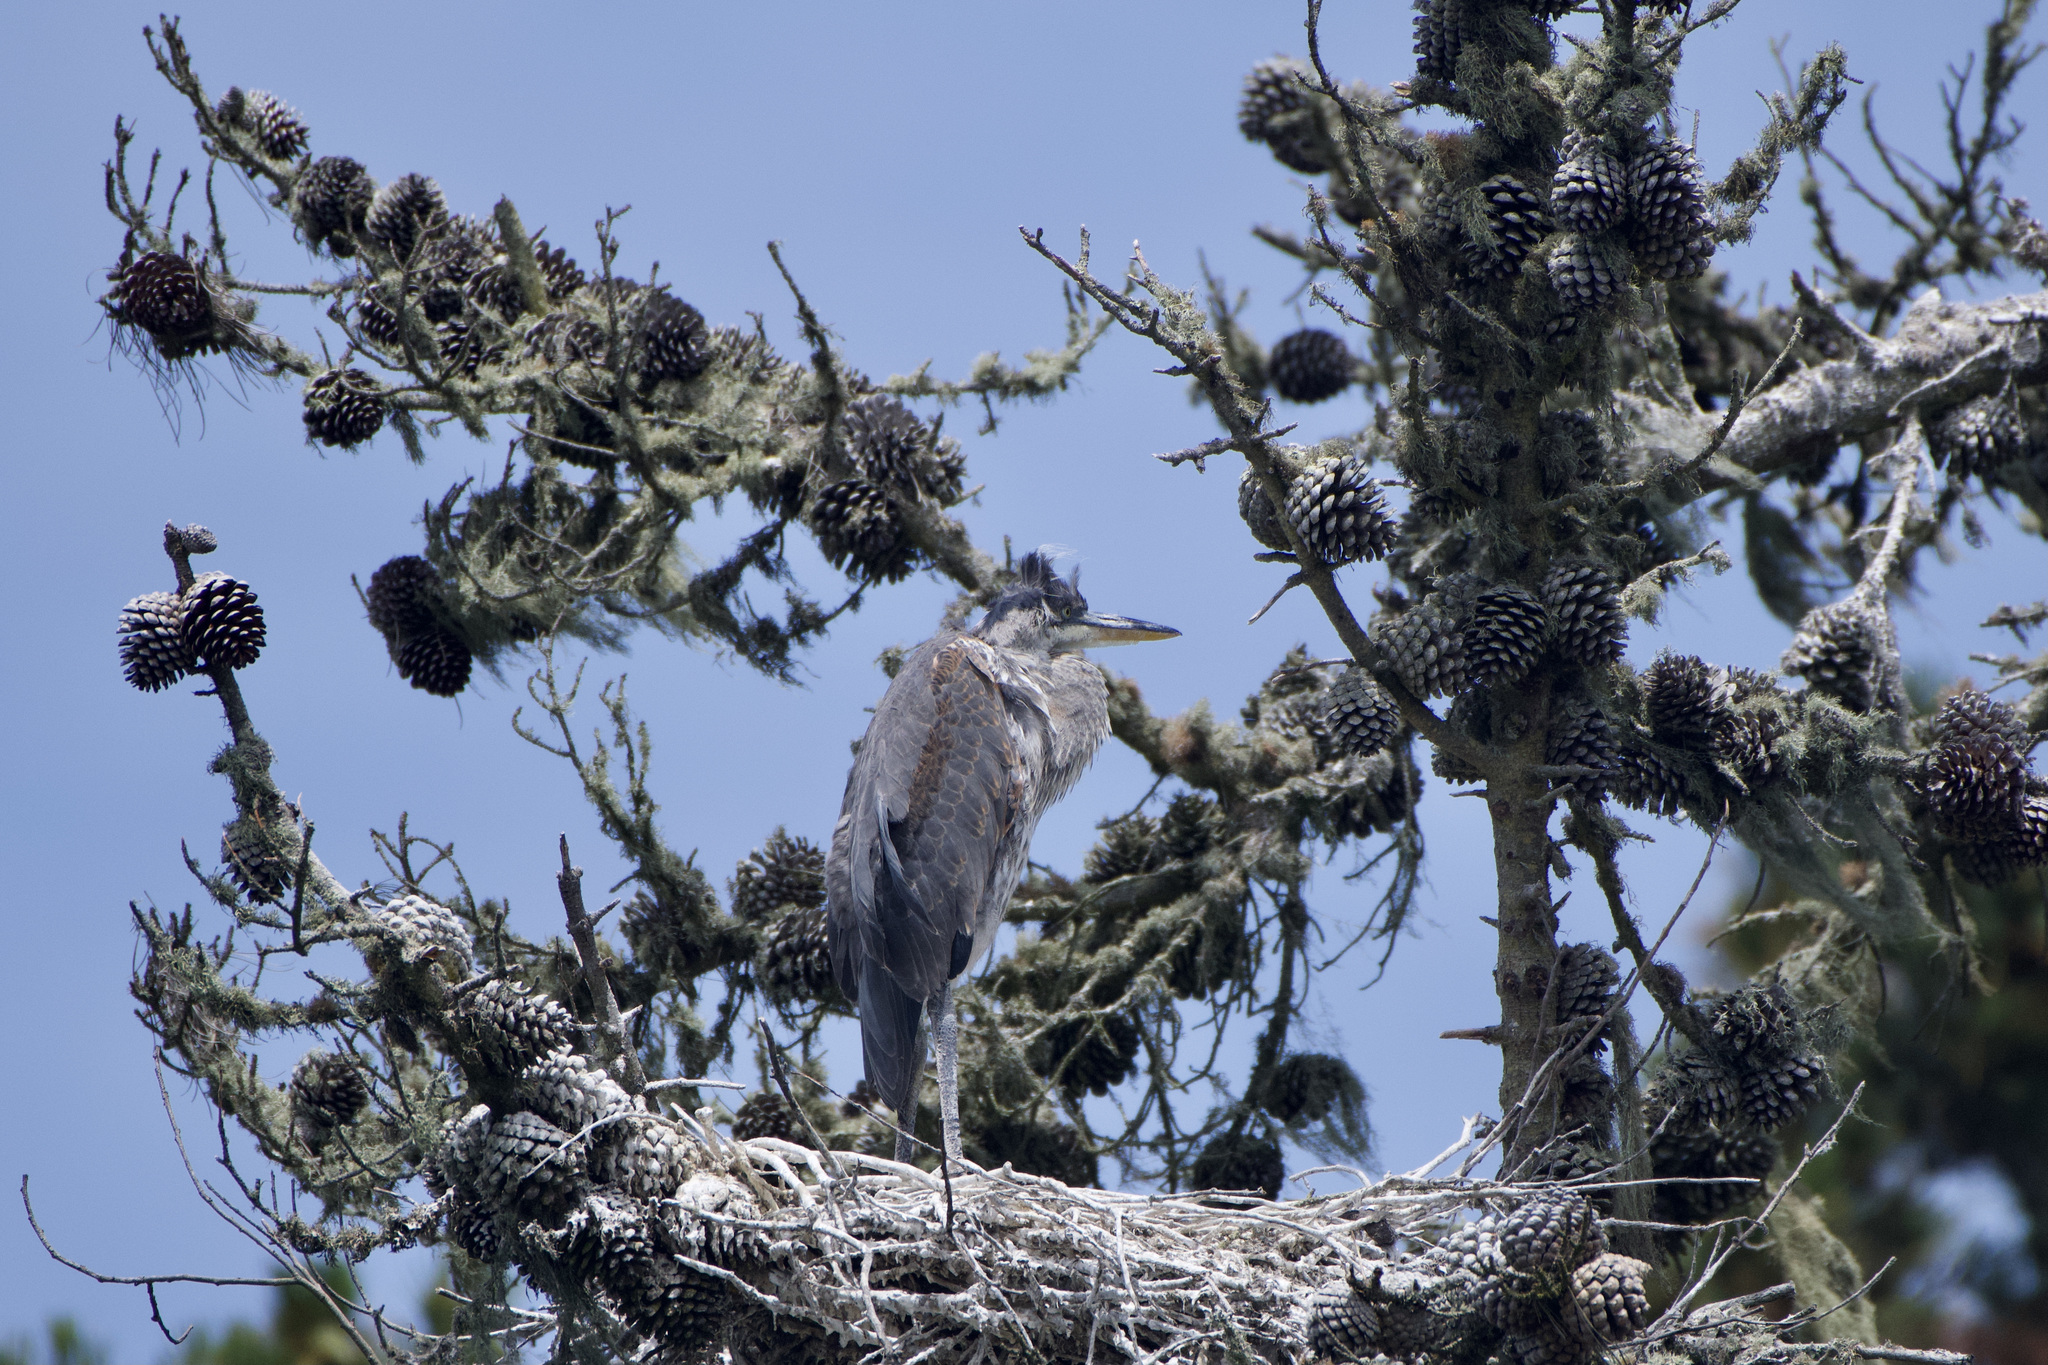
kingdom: Animalia
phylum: Chordata
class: Aves
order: Pelecaniformes
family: Ardeidae
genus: Ardea
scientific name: Ardea herodias
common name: Great blue heron
